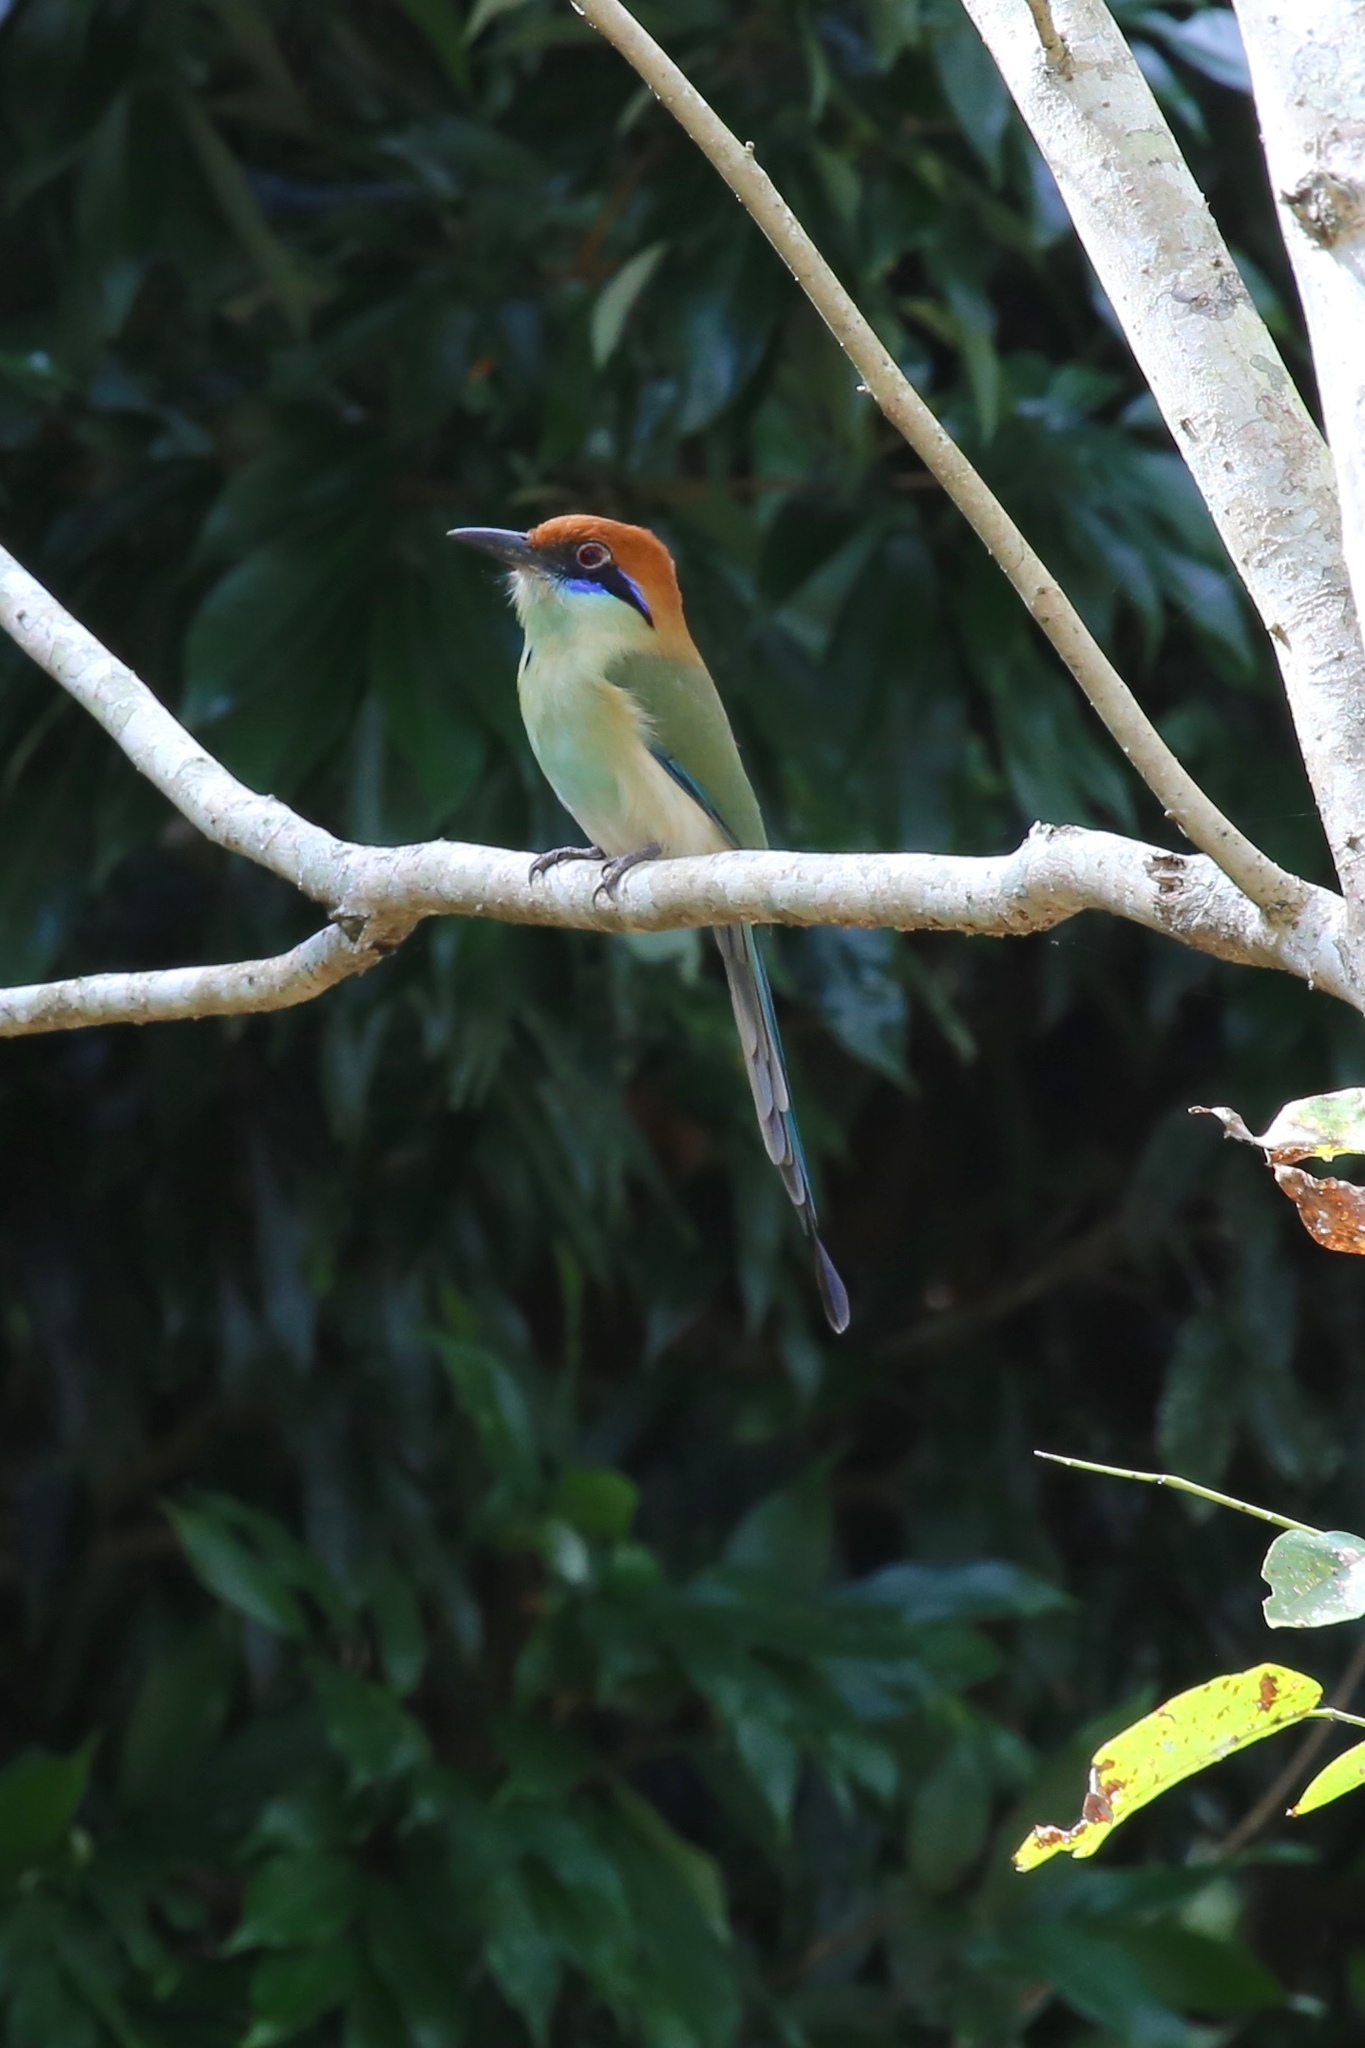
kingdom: Animalia
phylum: Chordata
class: Aves
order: Coraciiformes
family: Momotidae
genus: Momotus
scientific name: Momotus mexicanus
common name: Russet-crowned motmot
